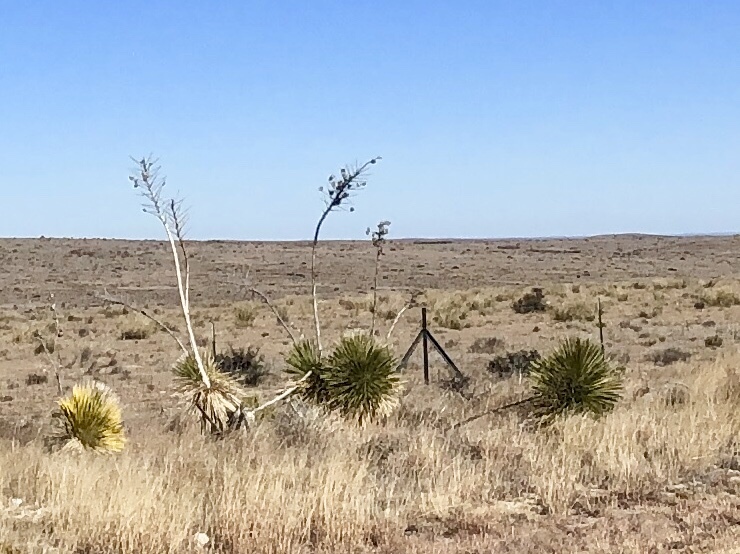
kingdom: Plantae
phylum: Tracheophyta
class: Liliopsida
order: Asparagales
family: Asparagaceae
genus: Yucca
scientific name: Yucca elata
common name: Palmella
